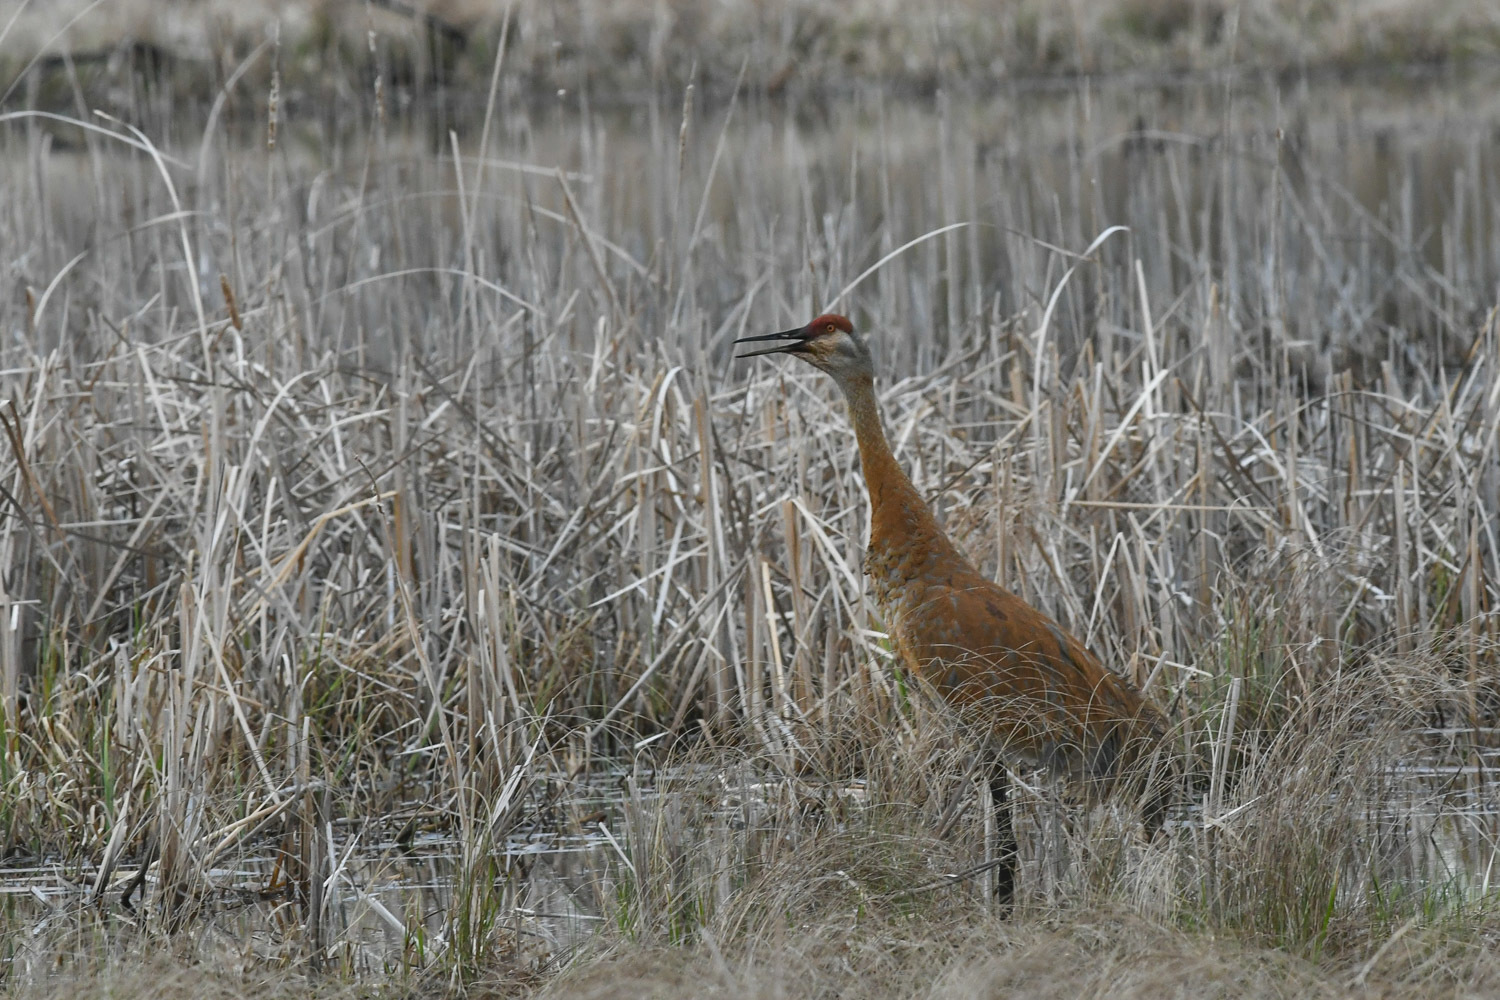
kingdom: Animalia
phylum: Chordata
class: Aves
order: Gruiformes
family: Gruidae
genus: Grus
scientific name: Grus canadensis
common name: Sandhill crane
